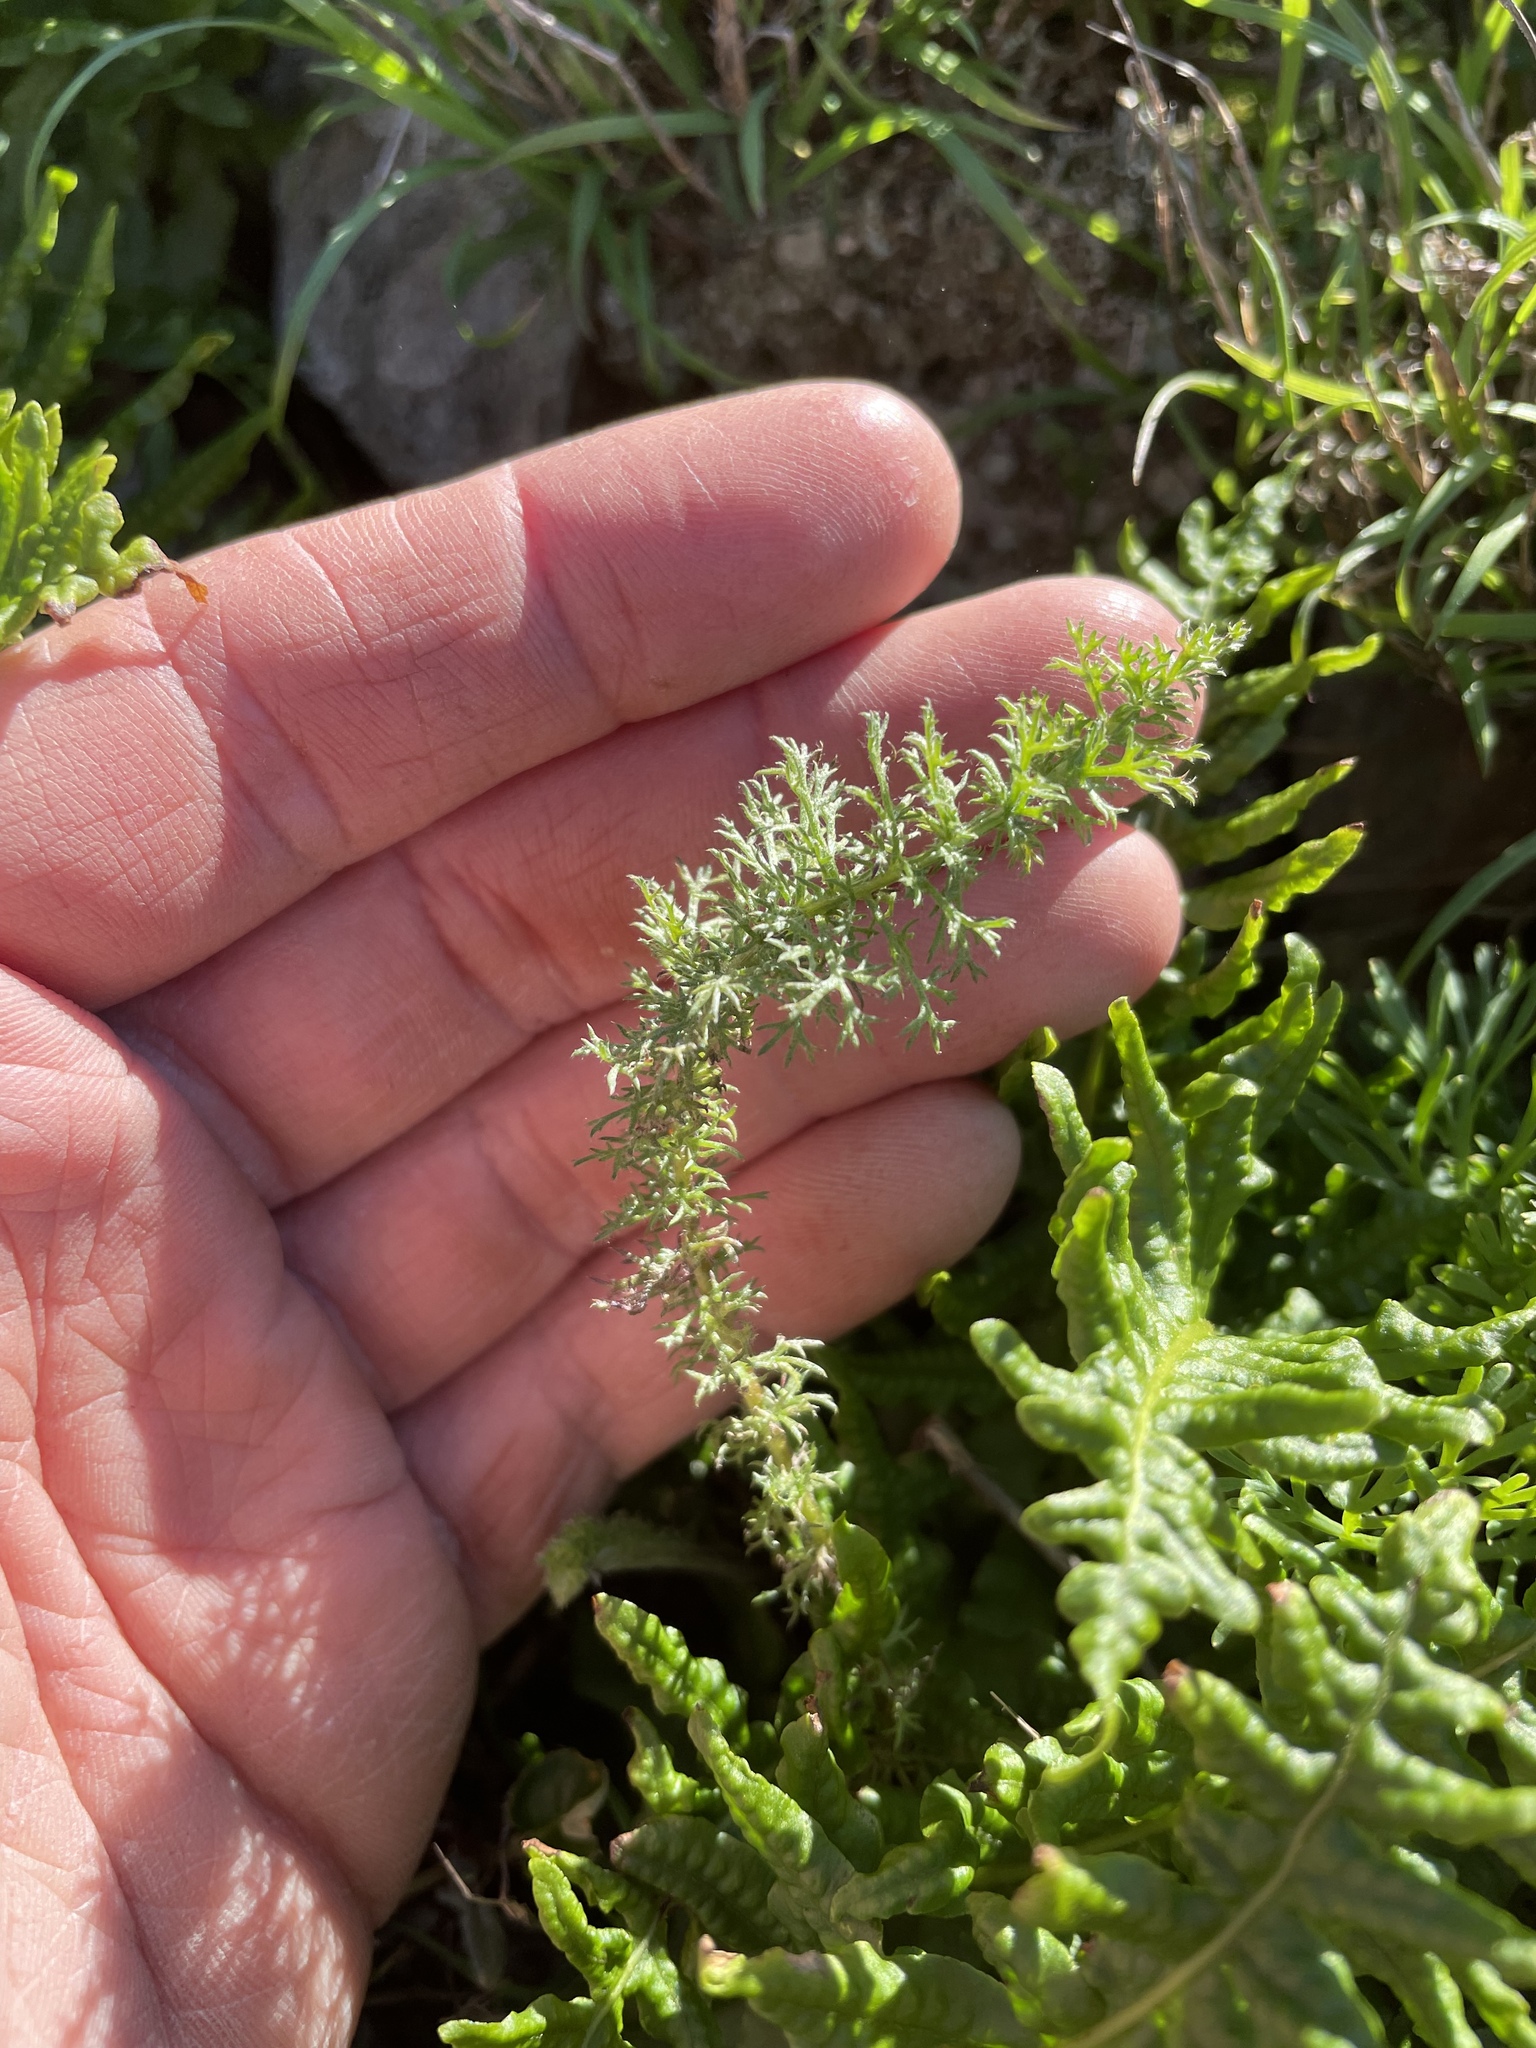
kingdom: Plantae
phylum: Tracheophyta
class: Magnoliopsida
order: Asterales
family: Asteraceae
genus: Achillea
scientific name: Achillea millefolium
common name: Yarrow
